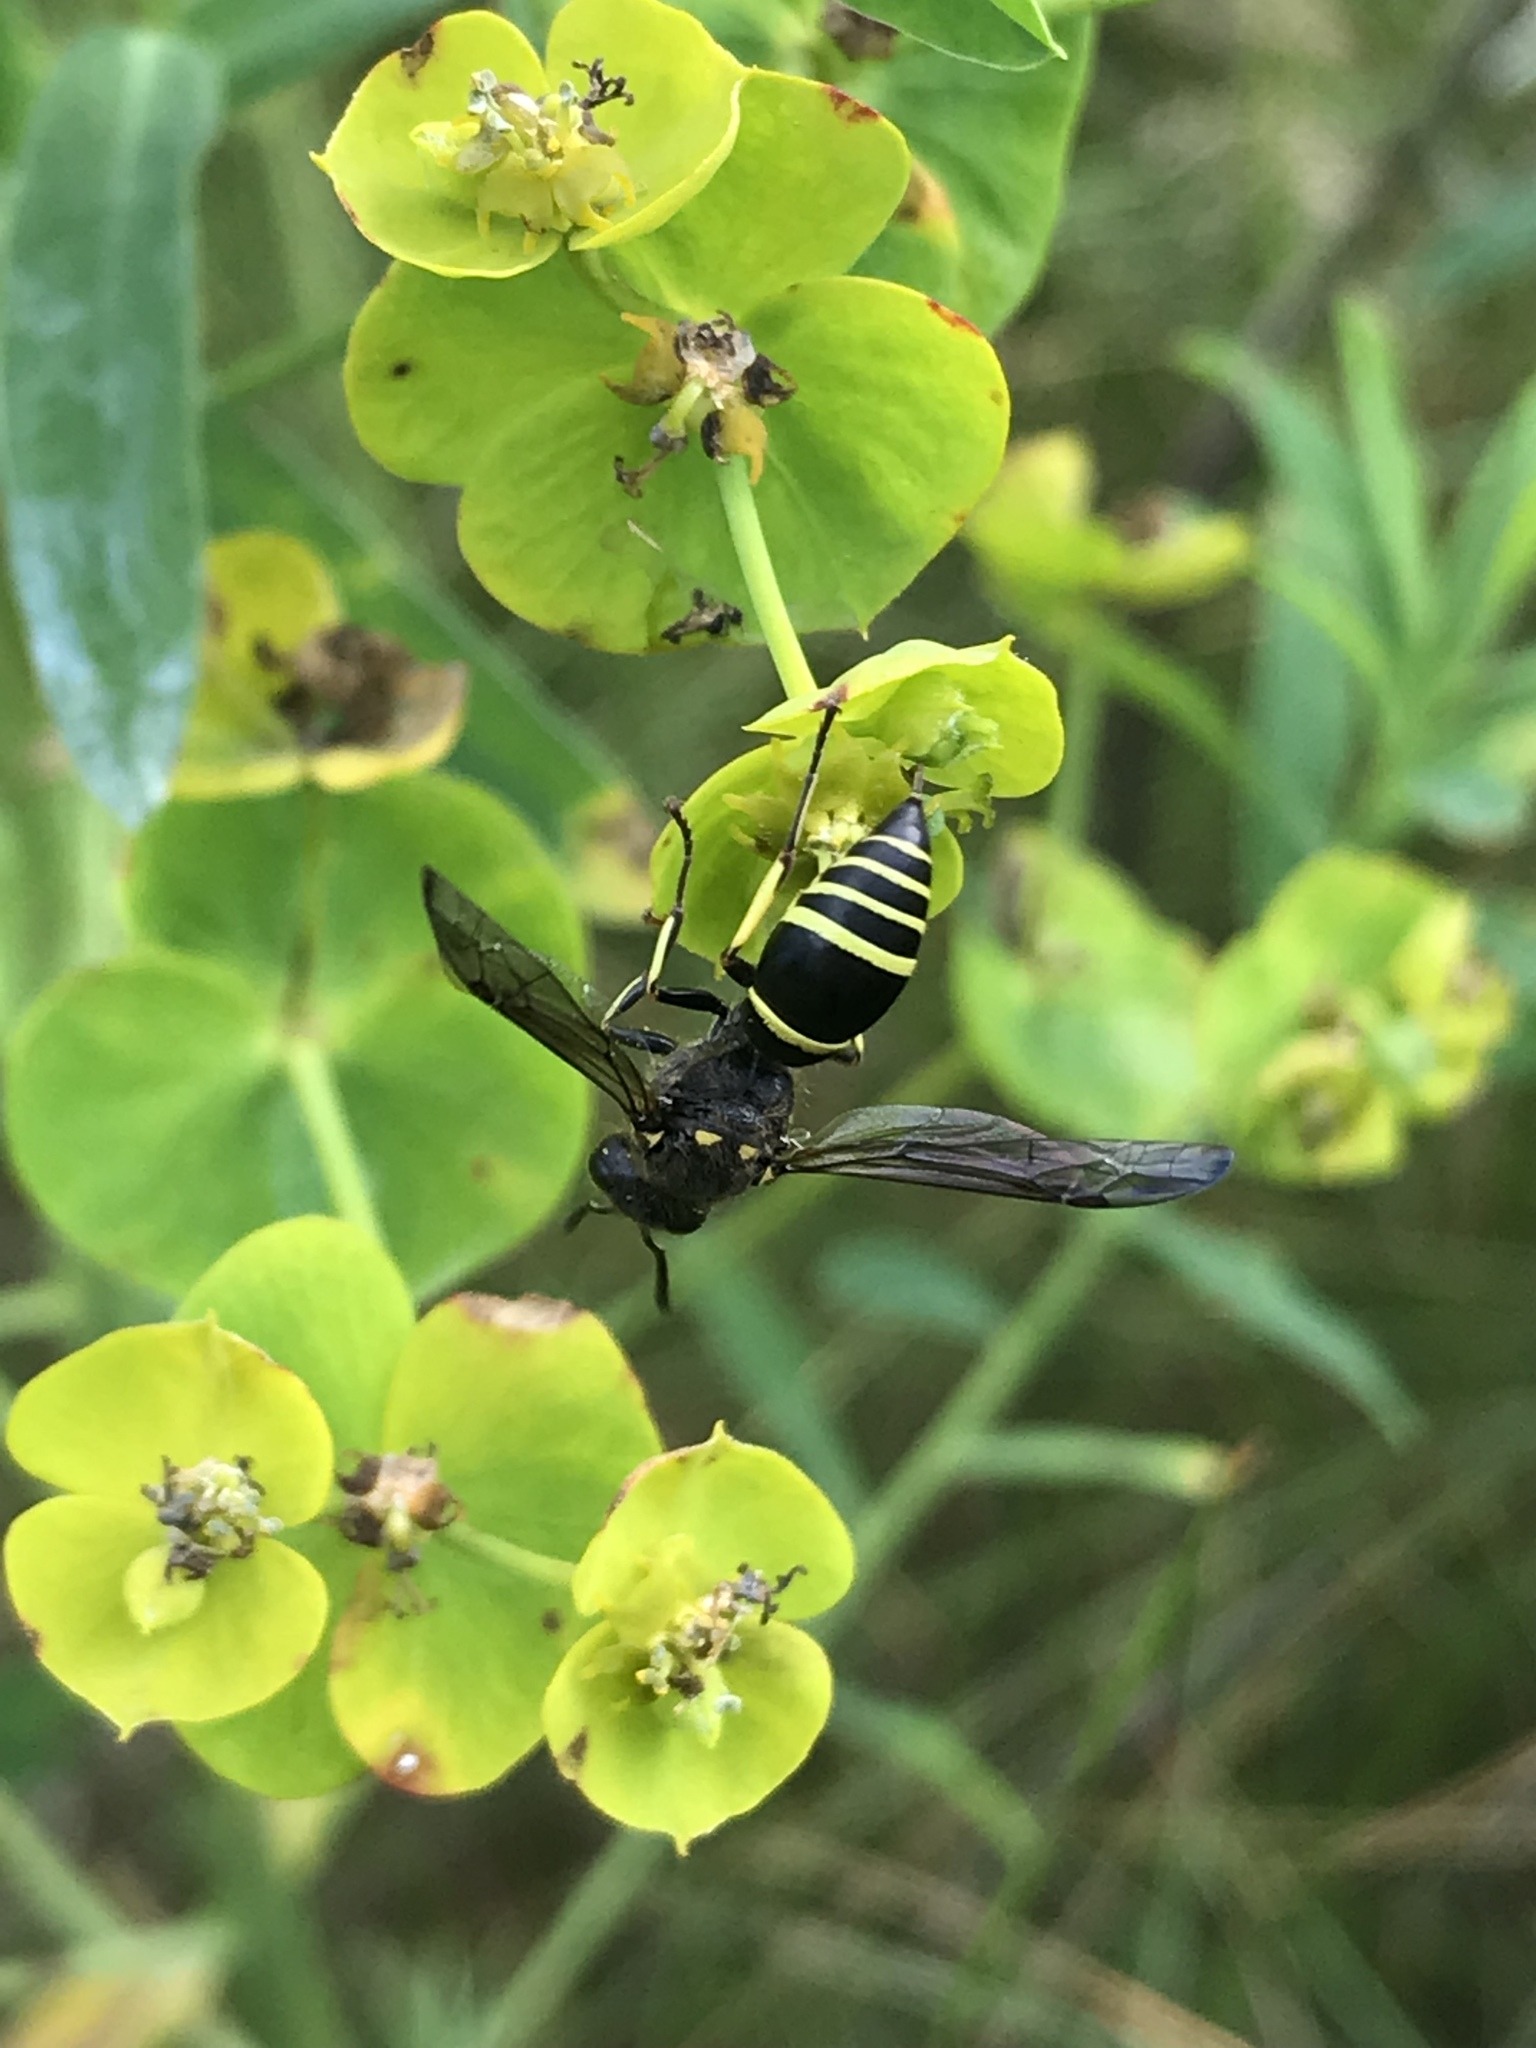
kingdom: Animalia
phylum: Arthropoda
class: Insecta
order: Hymenoptera
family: Vespidae
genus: Ancistrocerus
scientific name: Ancistrocerus
